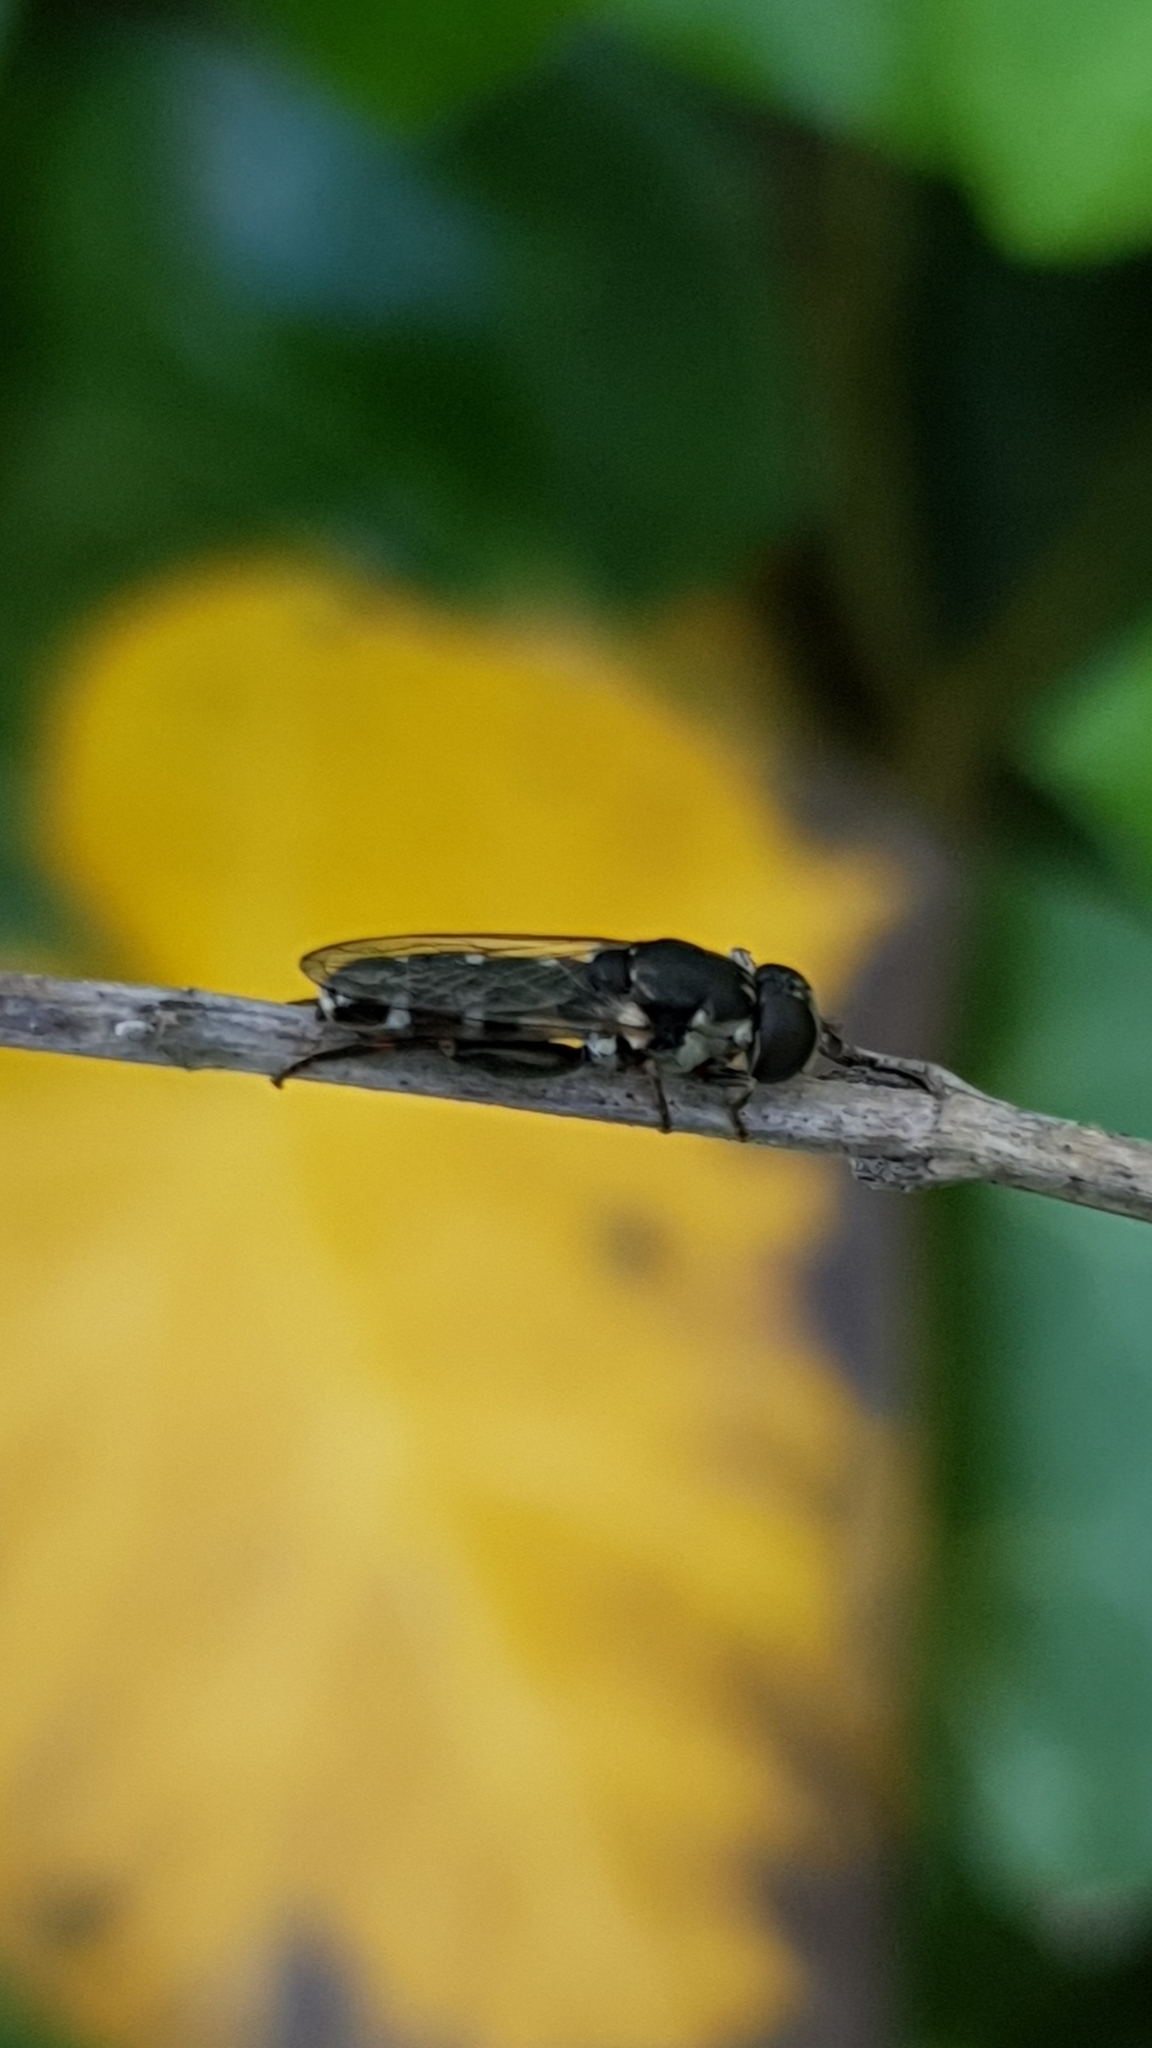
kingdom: Animalia
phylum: Arthropoda
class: Insecta
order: Diptera
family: Syrphidae
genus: Syritta
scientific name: Syritta pipiens
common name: Hover fly
